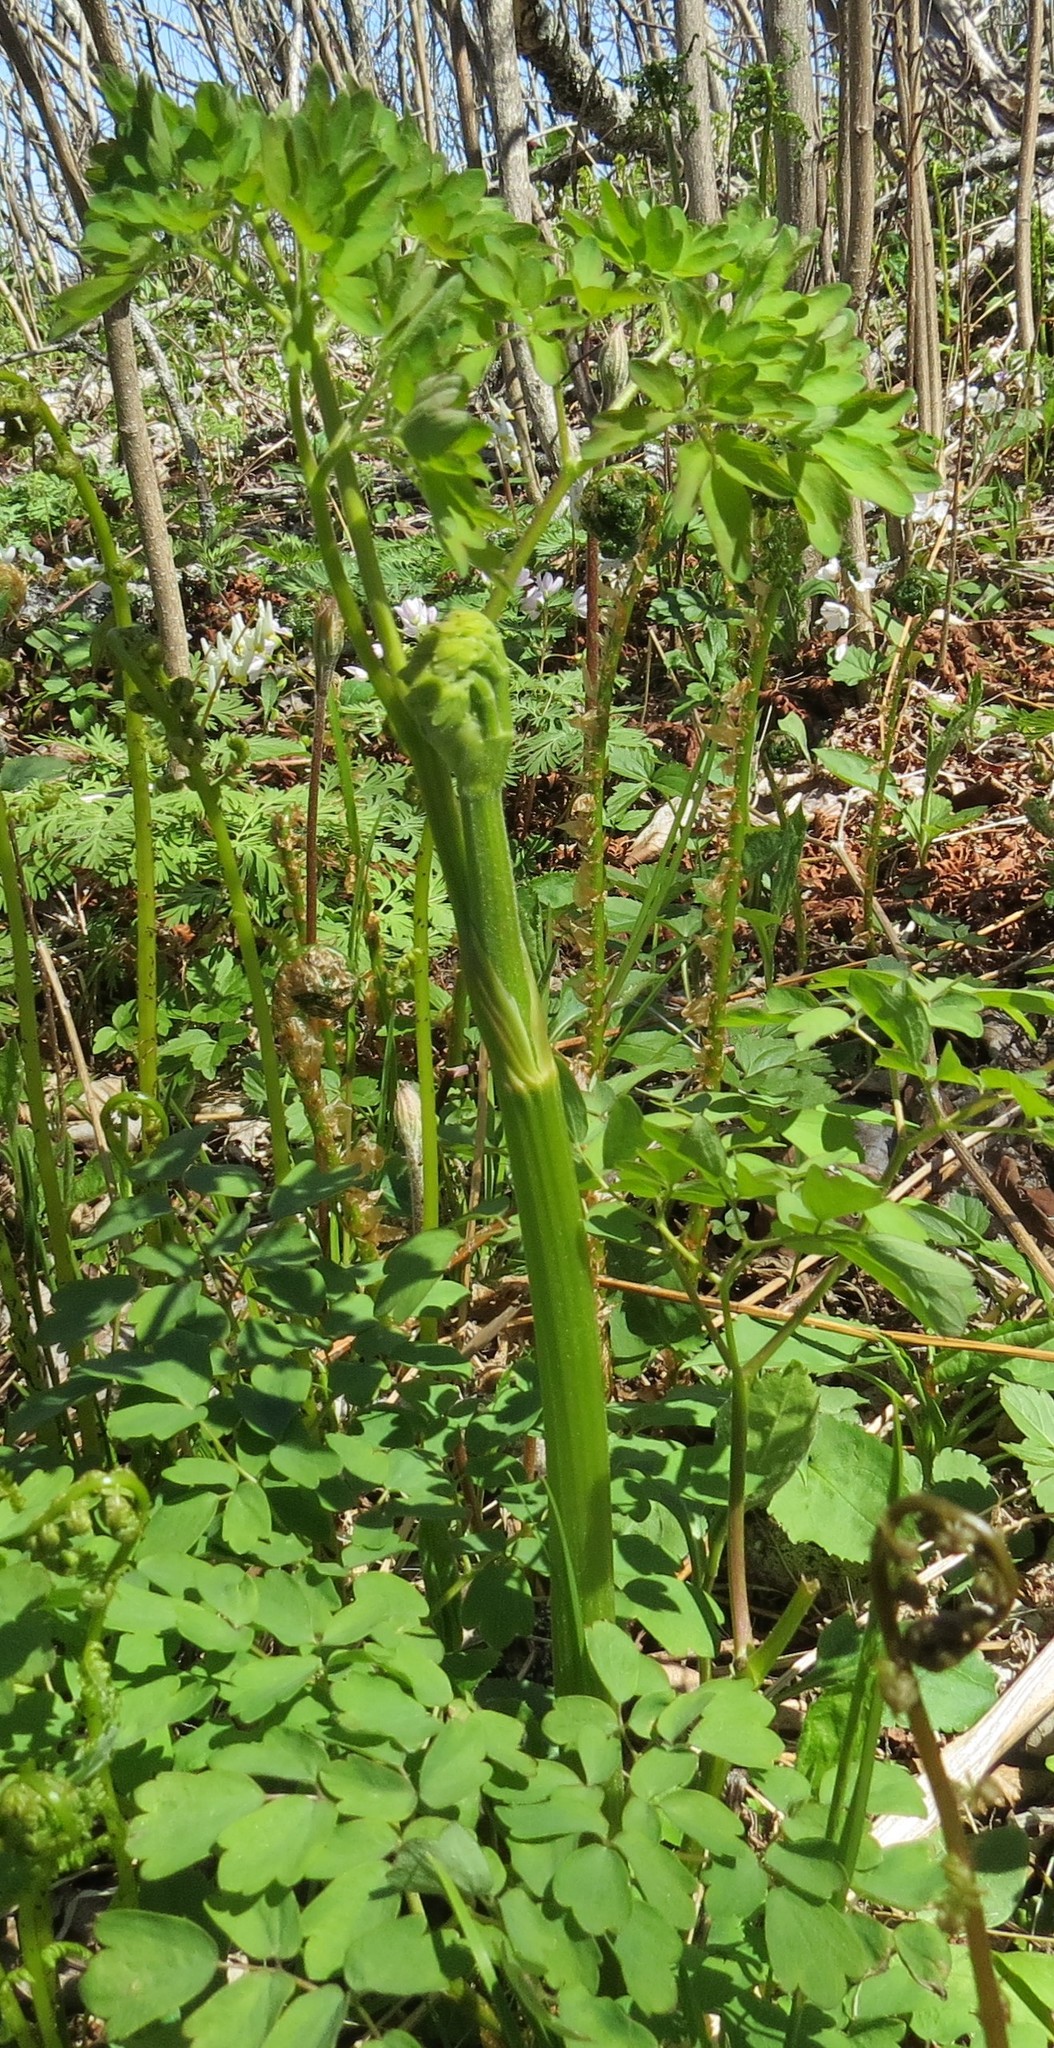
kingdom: Plantae
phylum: Tracheophyta
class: Magnoliopsida
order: Ranunculales
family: Ranunculaceae
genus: Thalictrum
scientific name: Thalictrum pubescens
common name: King-of-the-meadow
